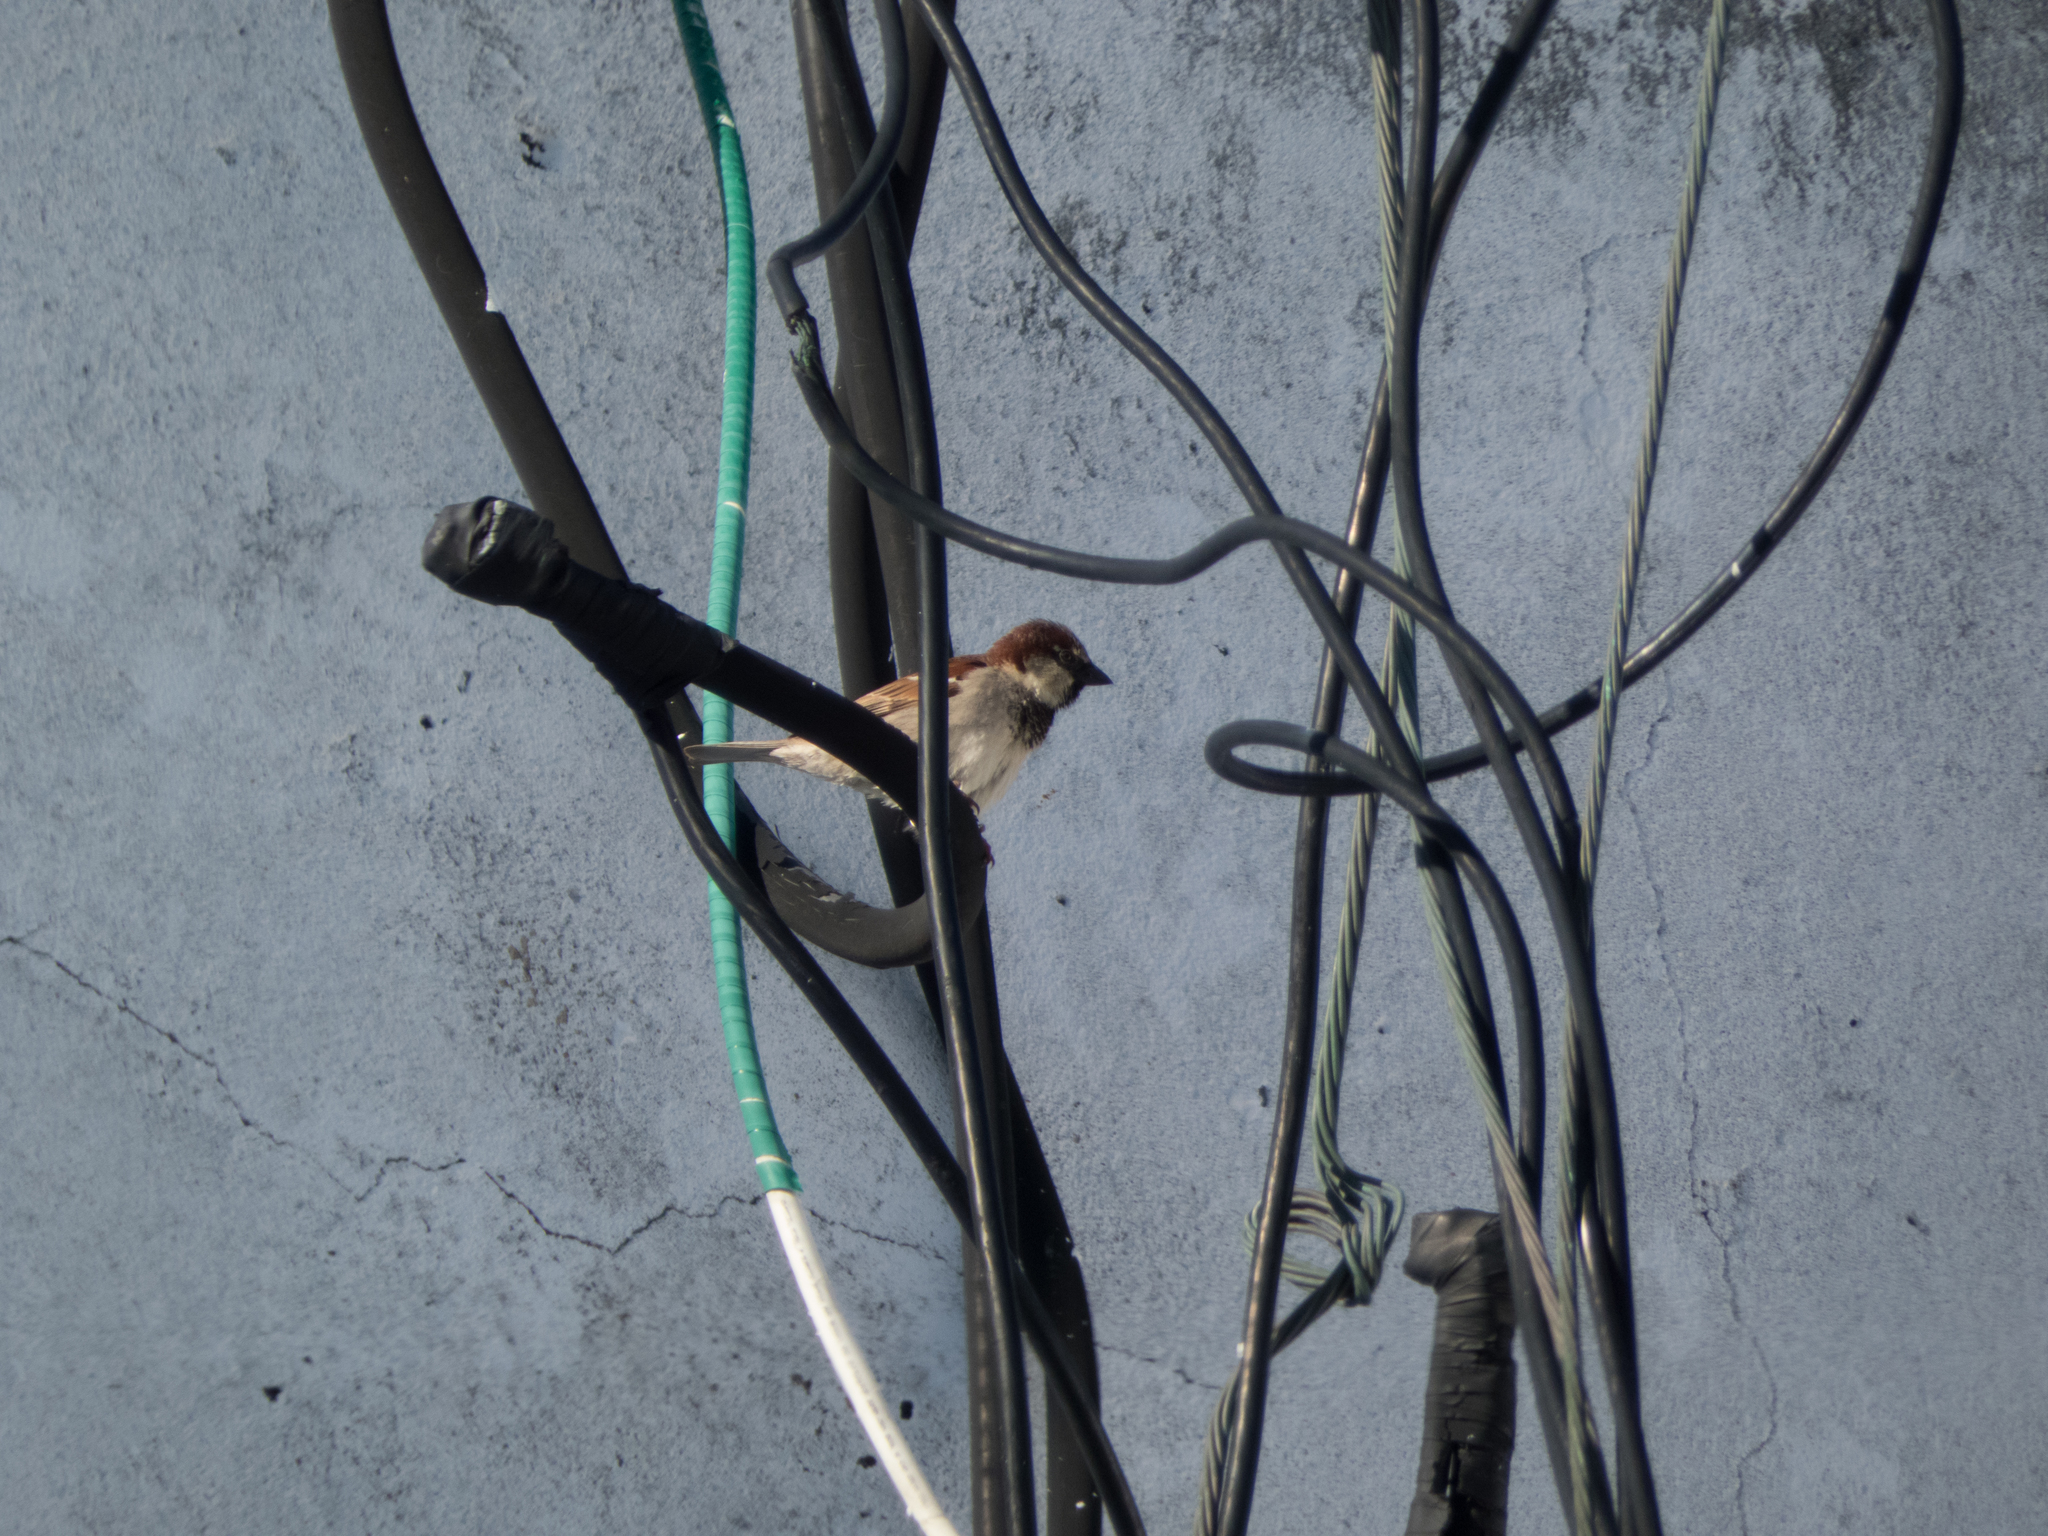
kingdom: Animalia
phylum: Chordata
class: Aves
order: Passeriformes
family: Passeridae
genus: Passer
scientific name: Passer domesticus
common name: House sparrow
